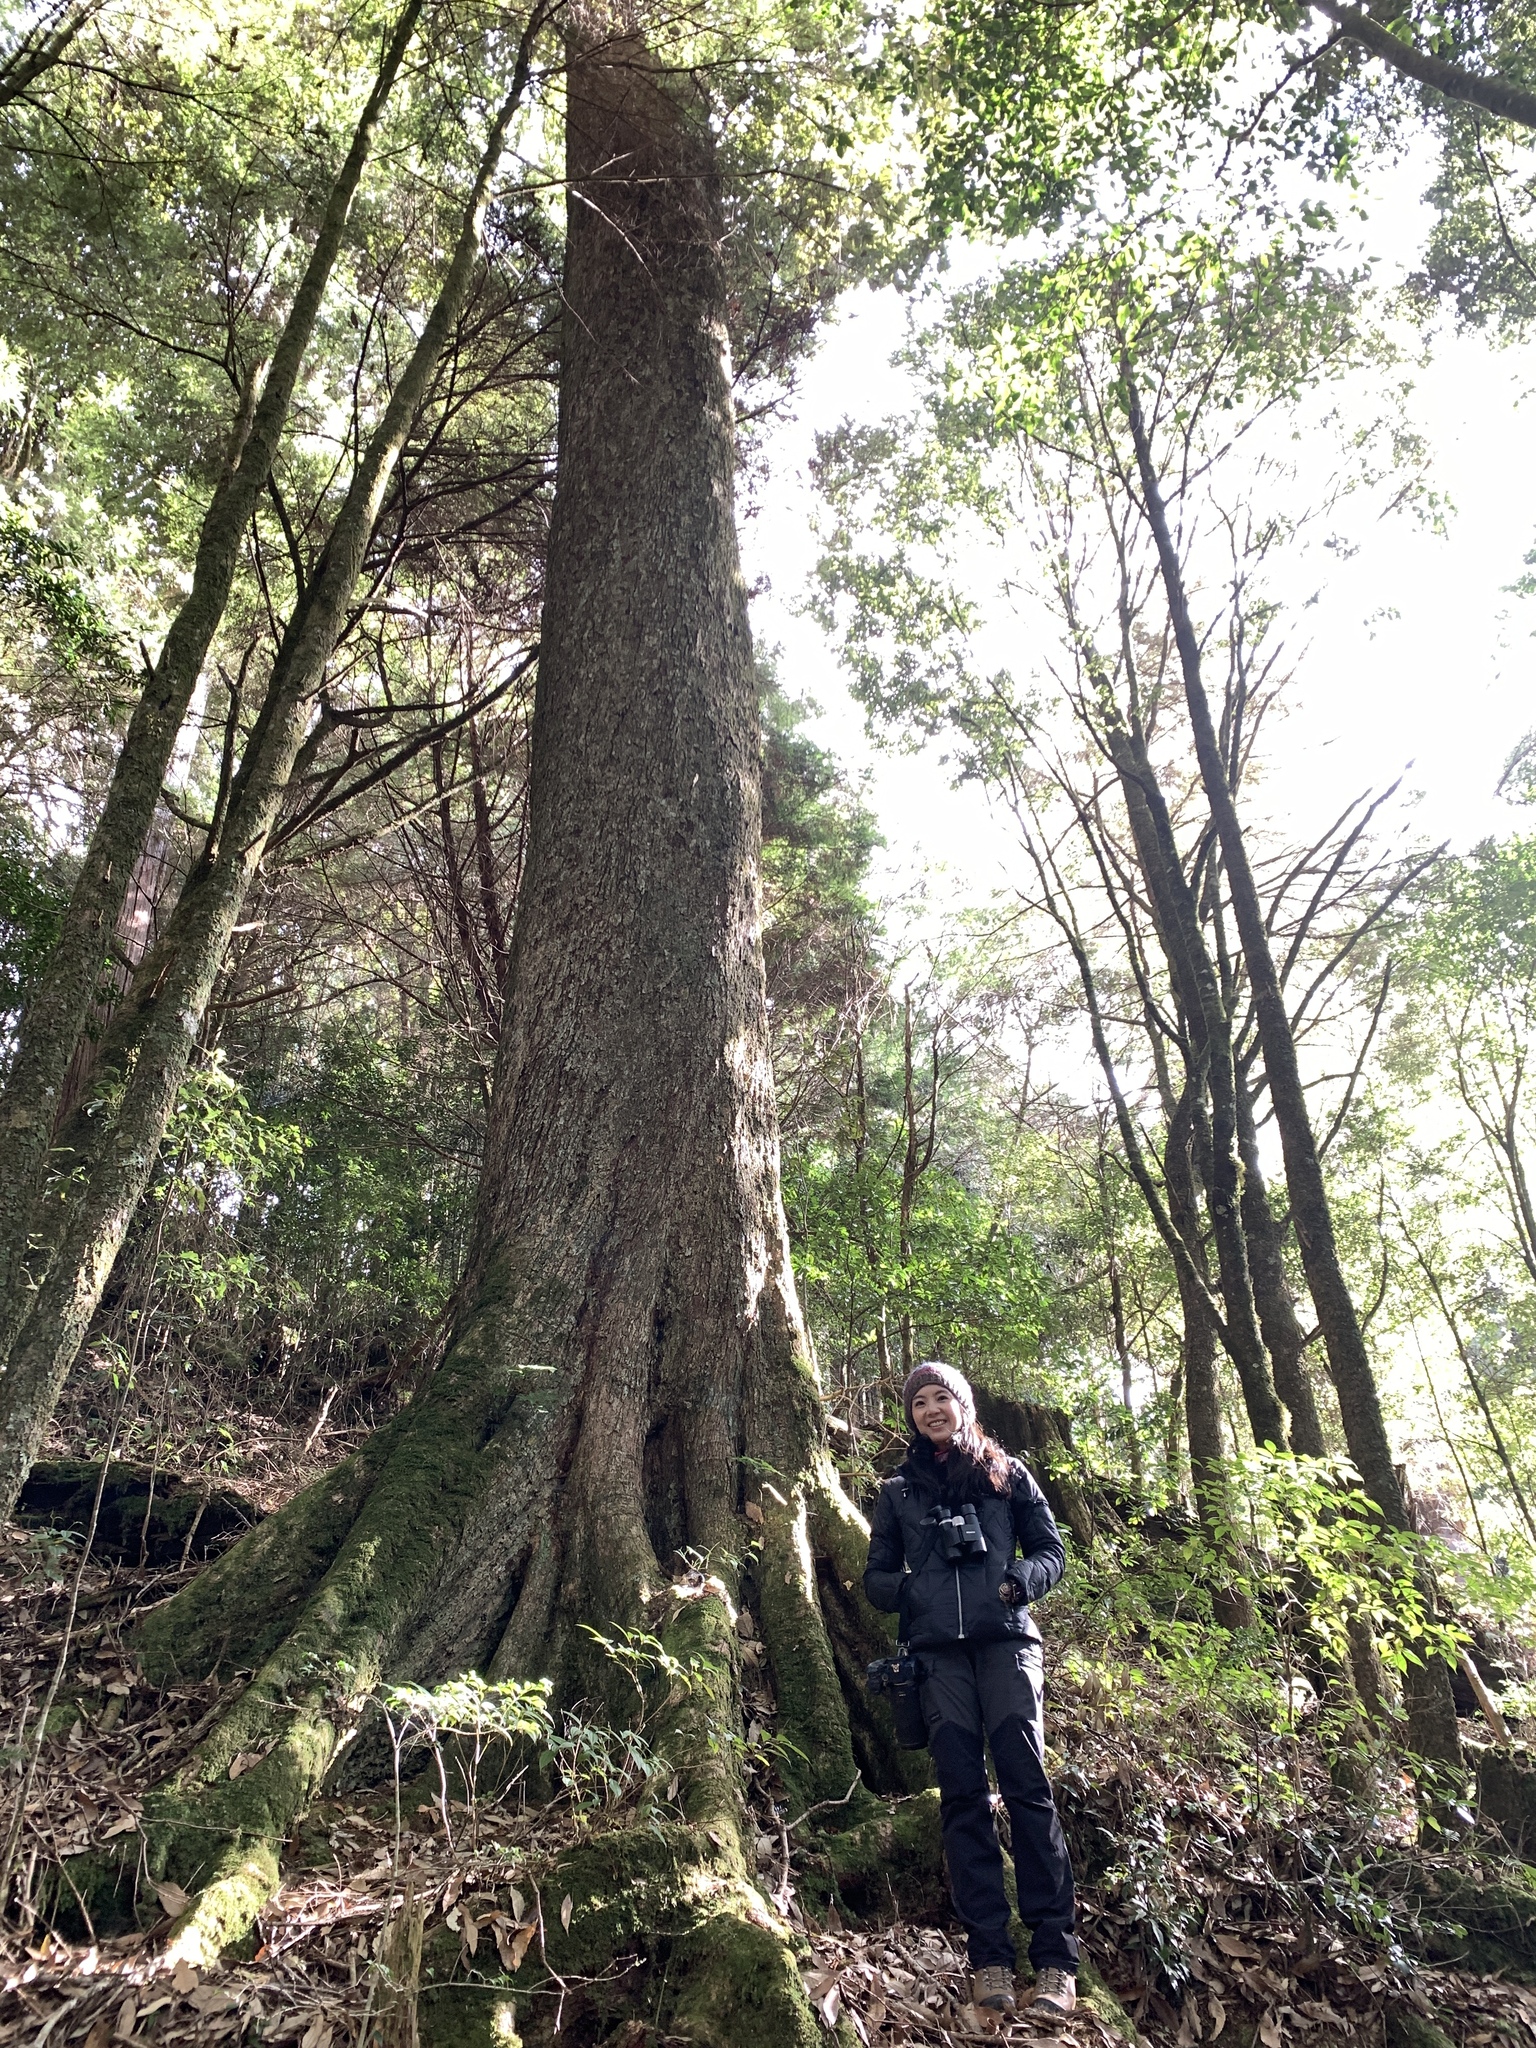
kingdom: Plantae
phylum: Tracheophyta
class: Magnoliopsida
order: Fagales
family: Fagaceae
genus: Lithocarpus
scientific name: Lithocarpus amygdalifolius
